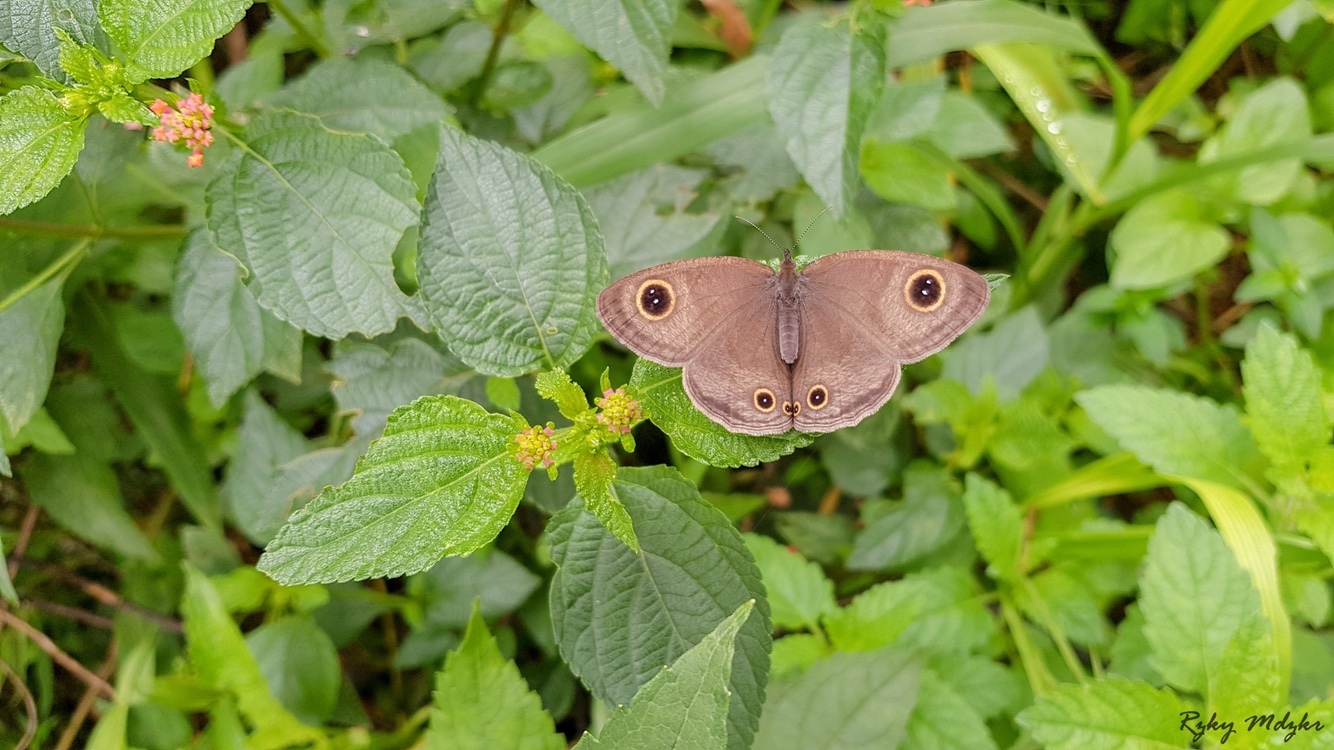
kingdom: Animalia
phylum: Arthropoda
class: Insecta
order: Lepidoptera
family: Nymphalidae
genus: Ypthima
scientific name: Ypthima pandocus
